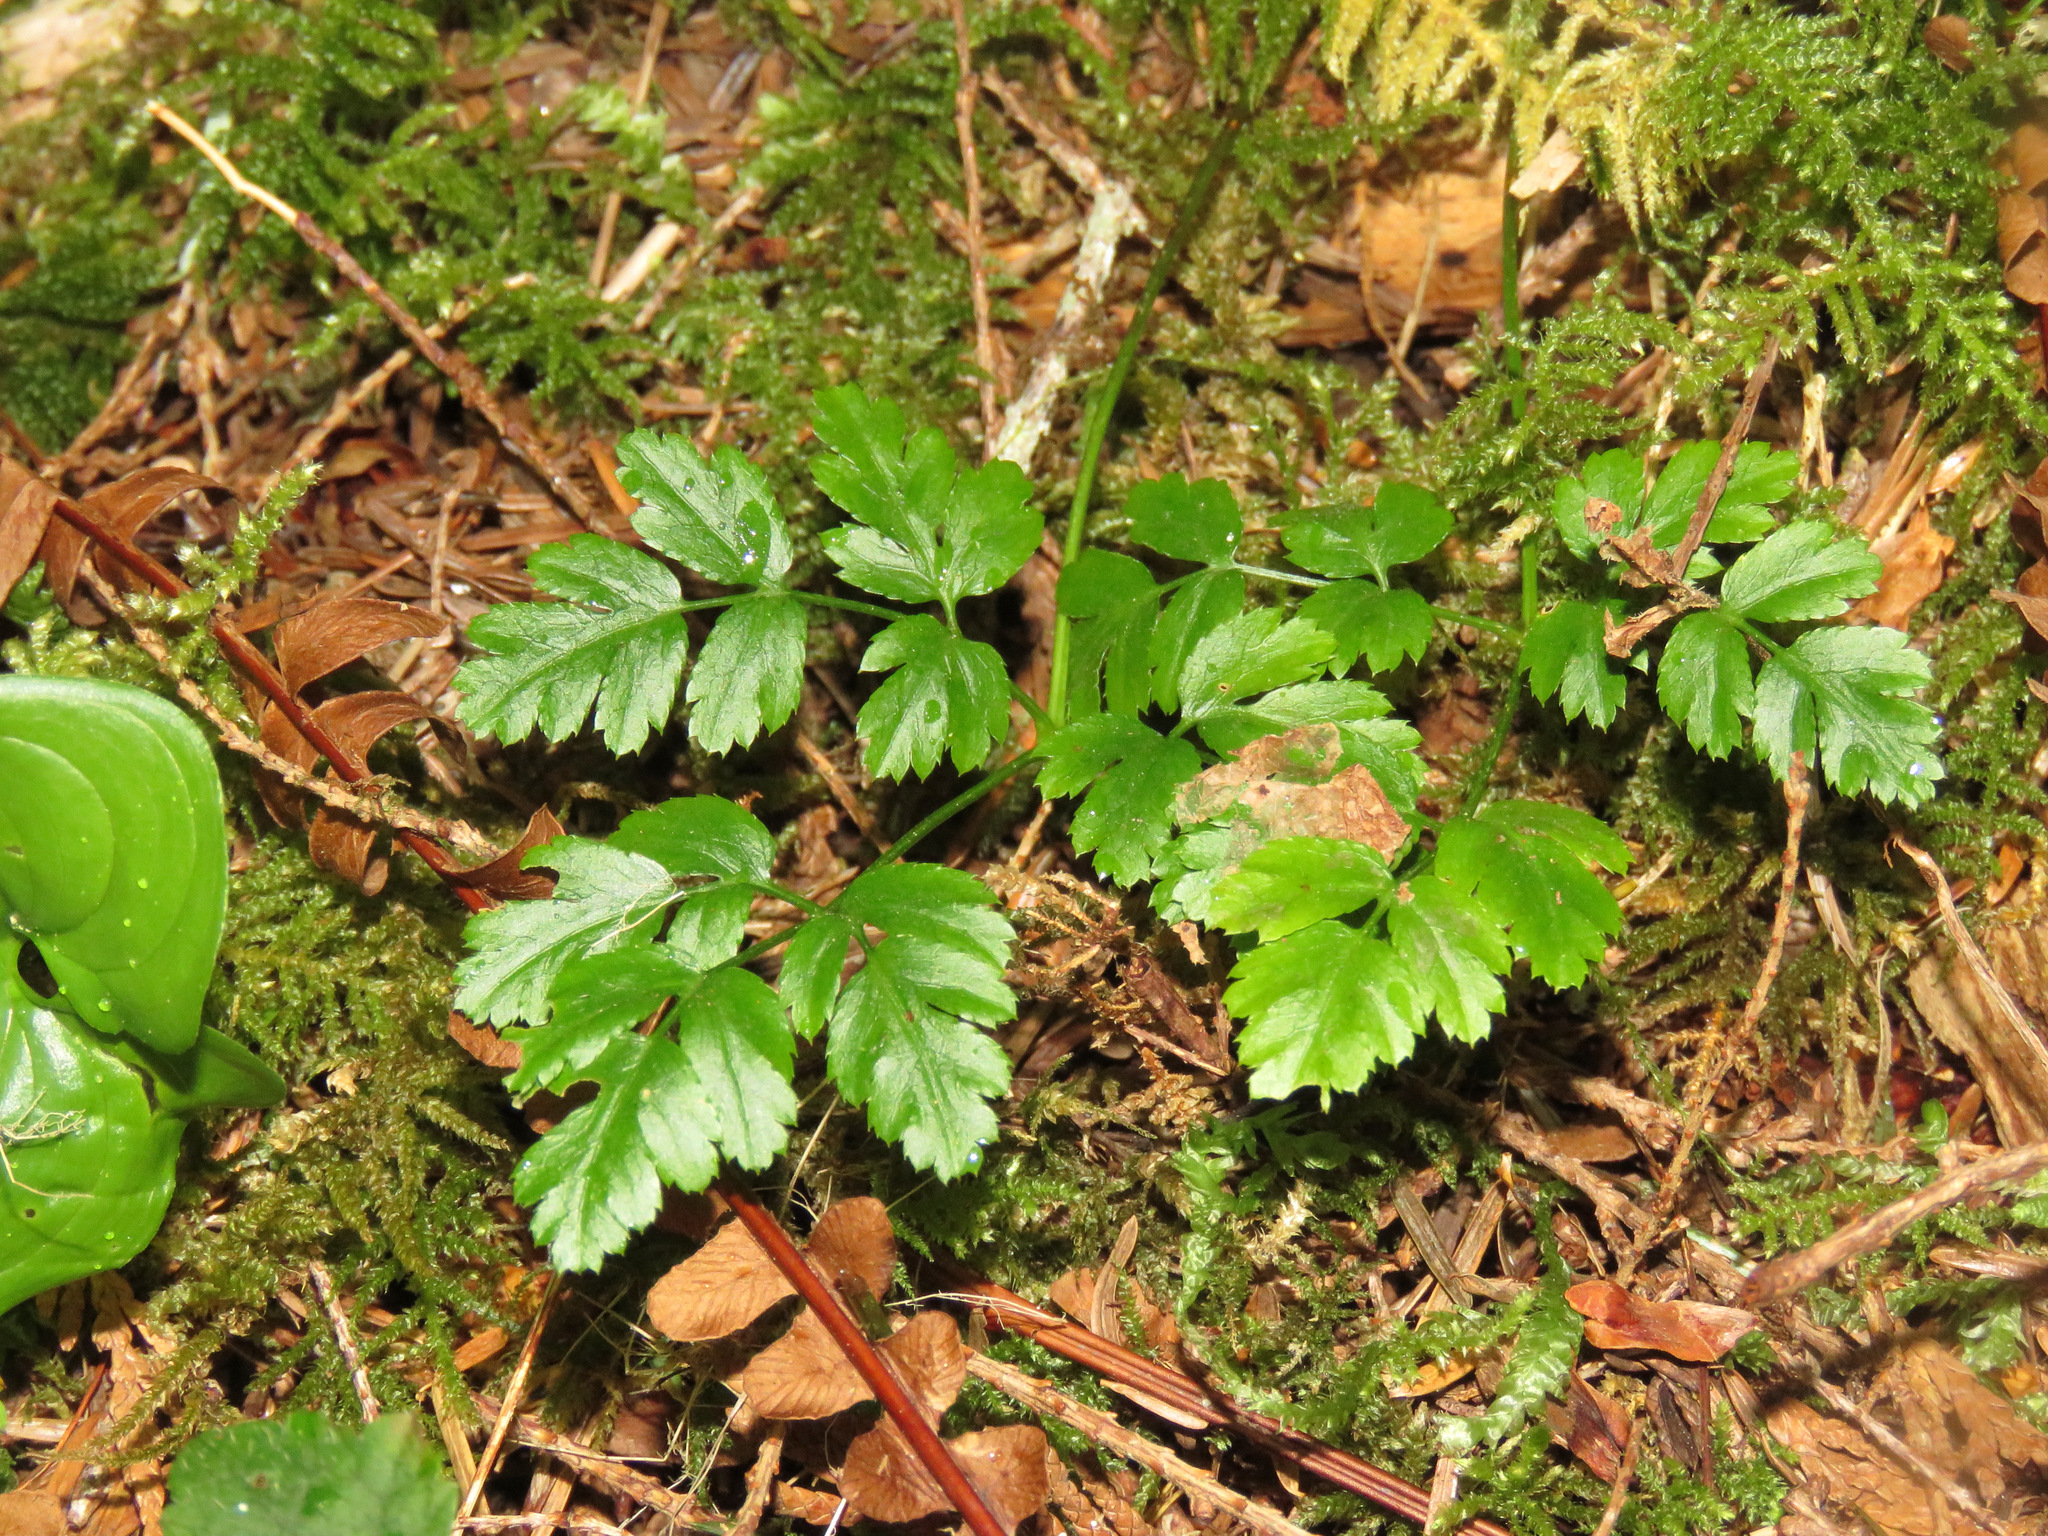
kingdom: Plantae
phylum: Tracheophyta
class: Magnoliopsida
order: Ranunculales
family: Ranunculaceae
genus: Coptis
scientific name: Coptis aspleniifolia
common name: Fern-leaved goldthread
